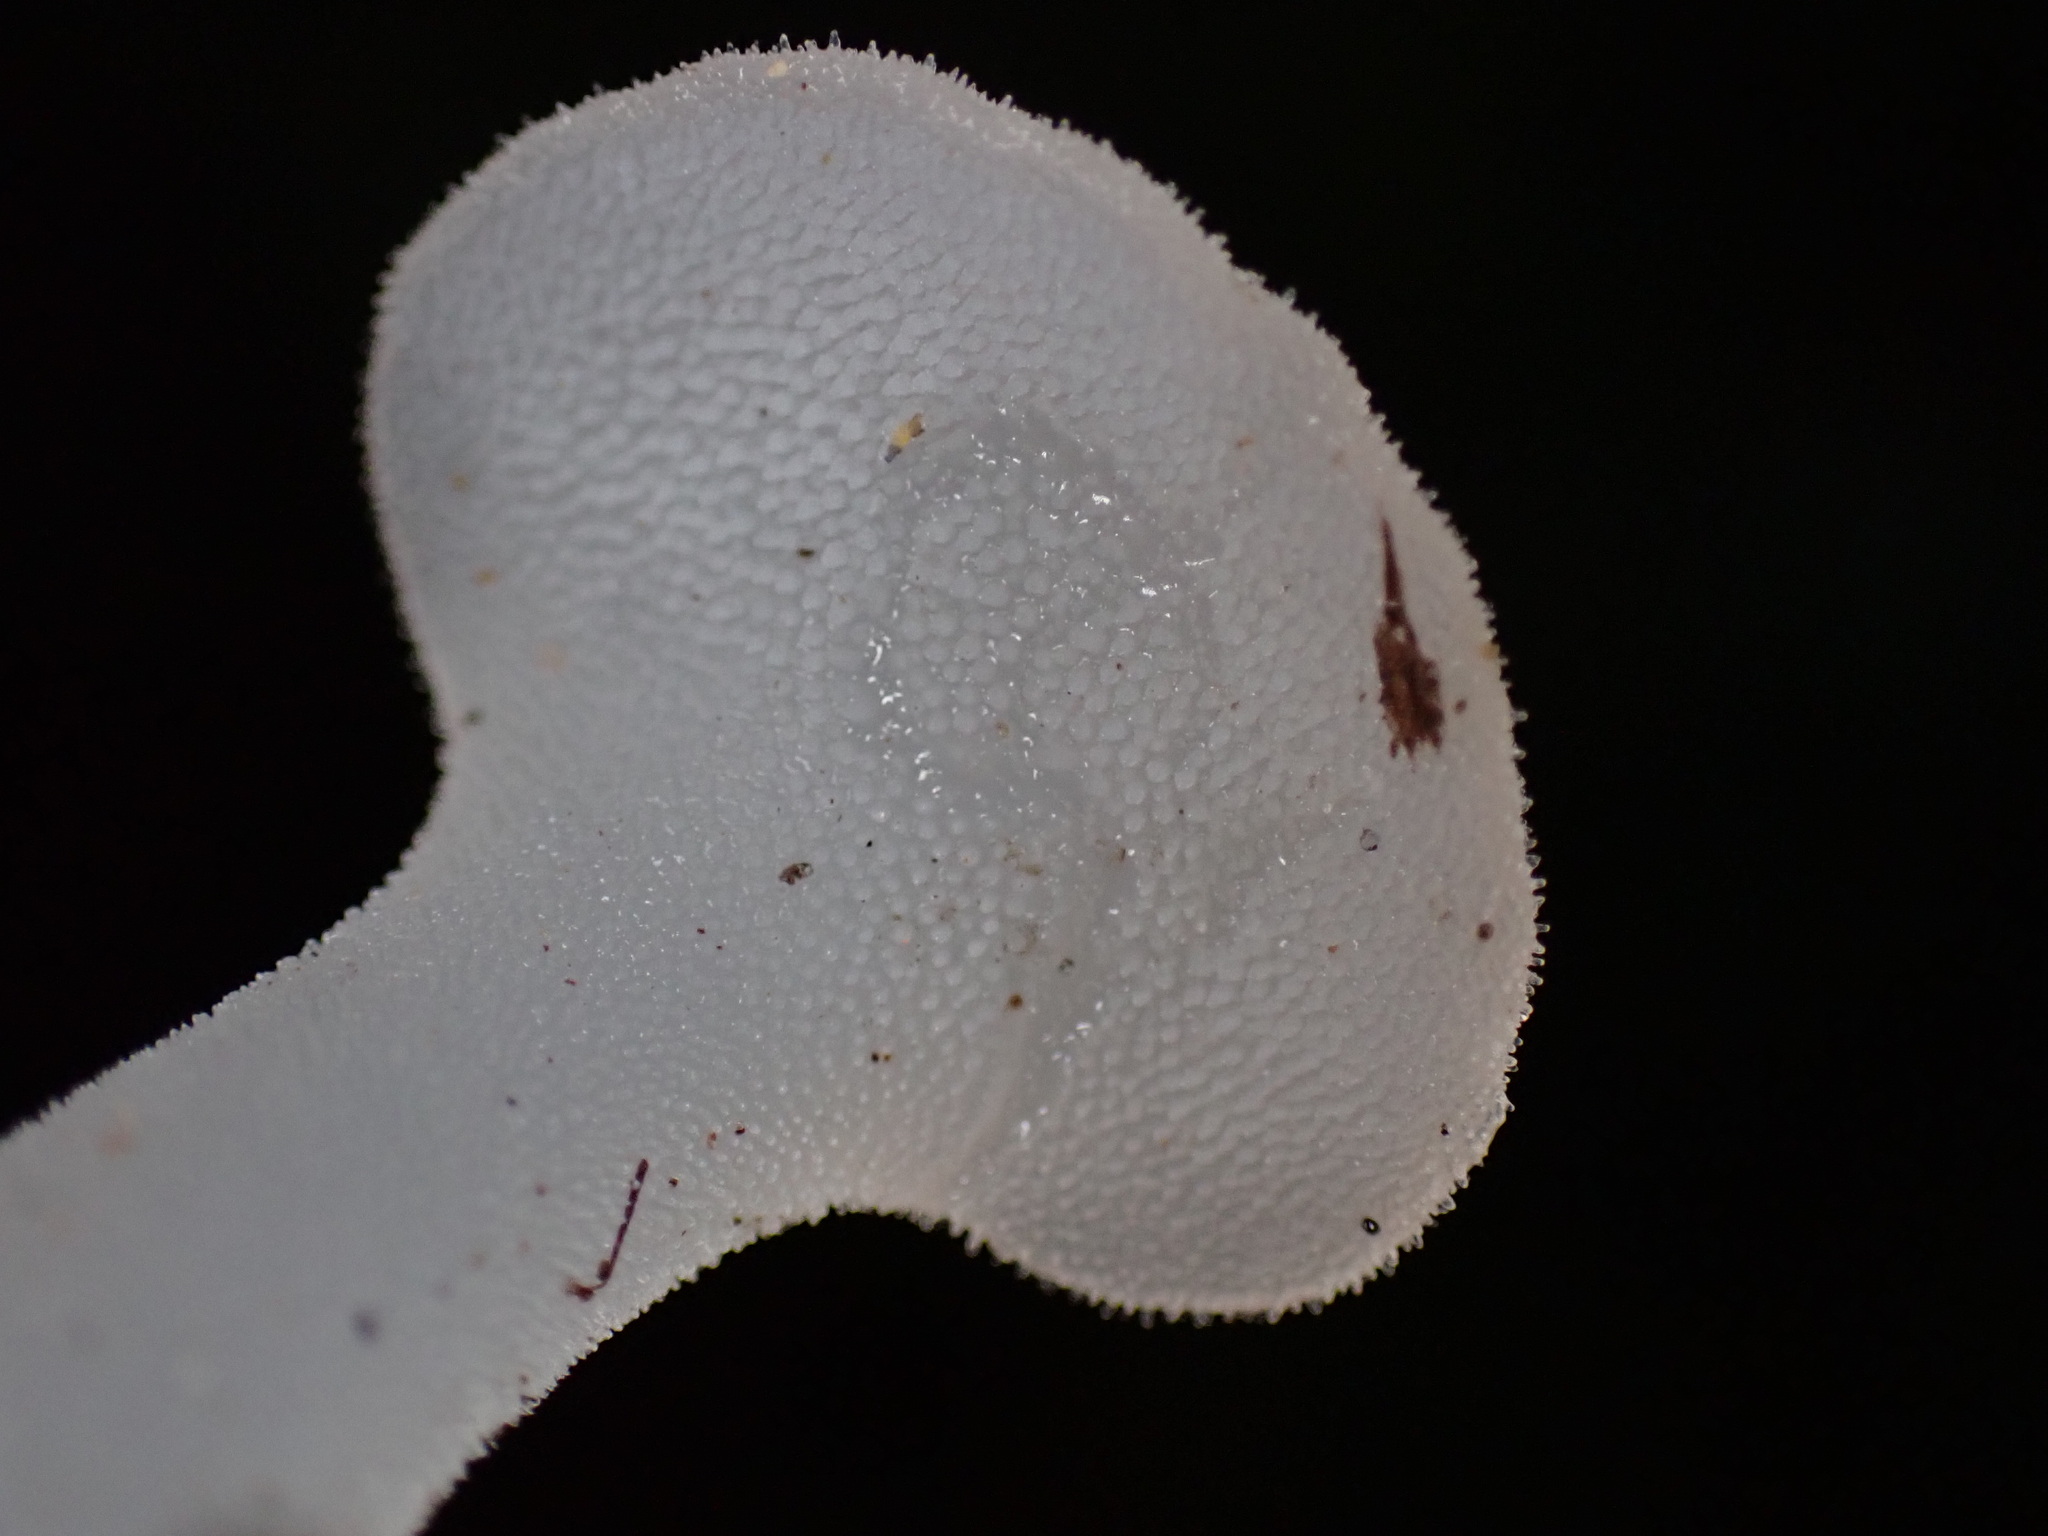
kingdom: Fungi
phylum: Basidiomycota
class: Agaricomycetes
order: Auriculariales
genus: Pseudohydnum
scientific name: Pseudohydnum gelatinosum
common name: Jelly tongue
